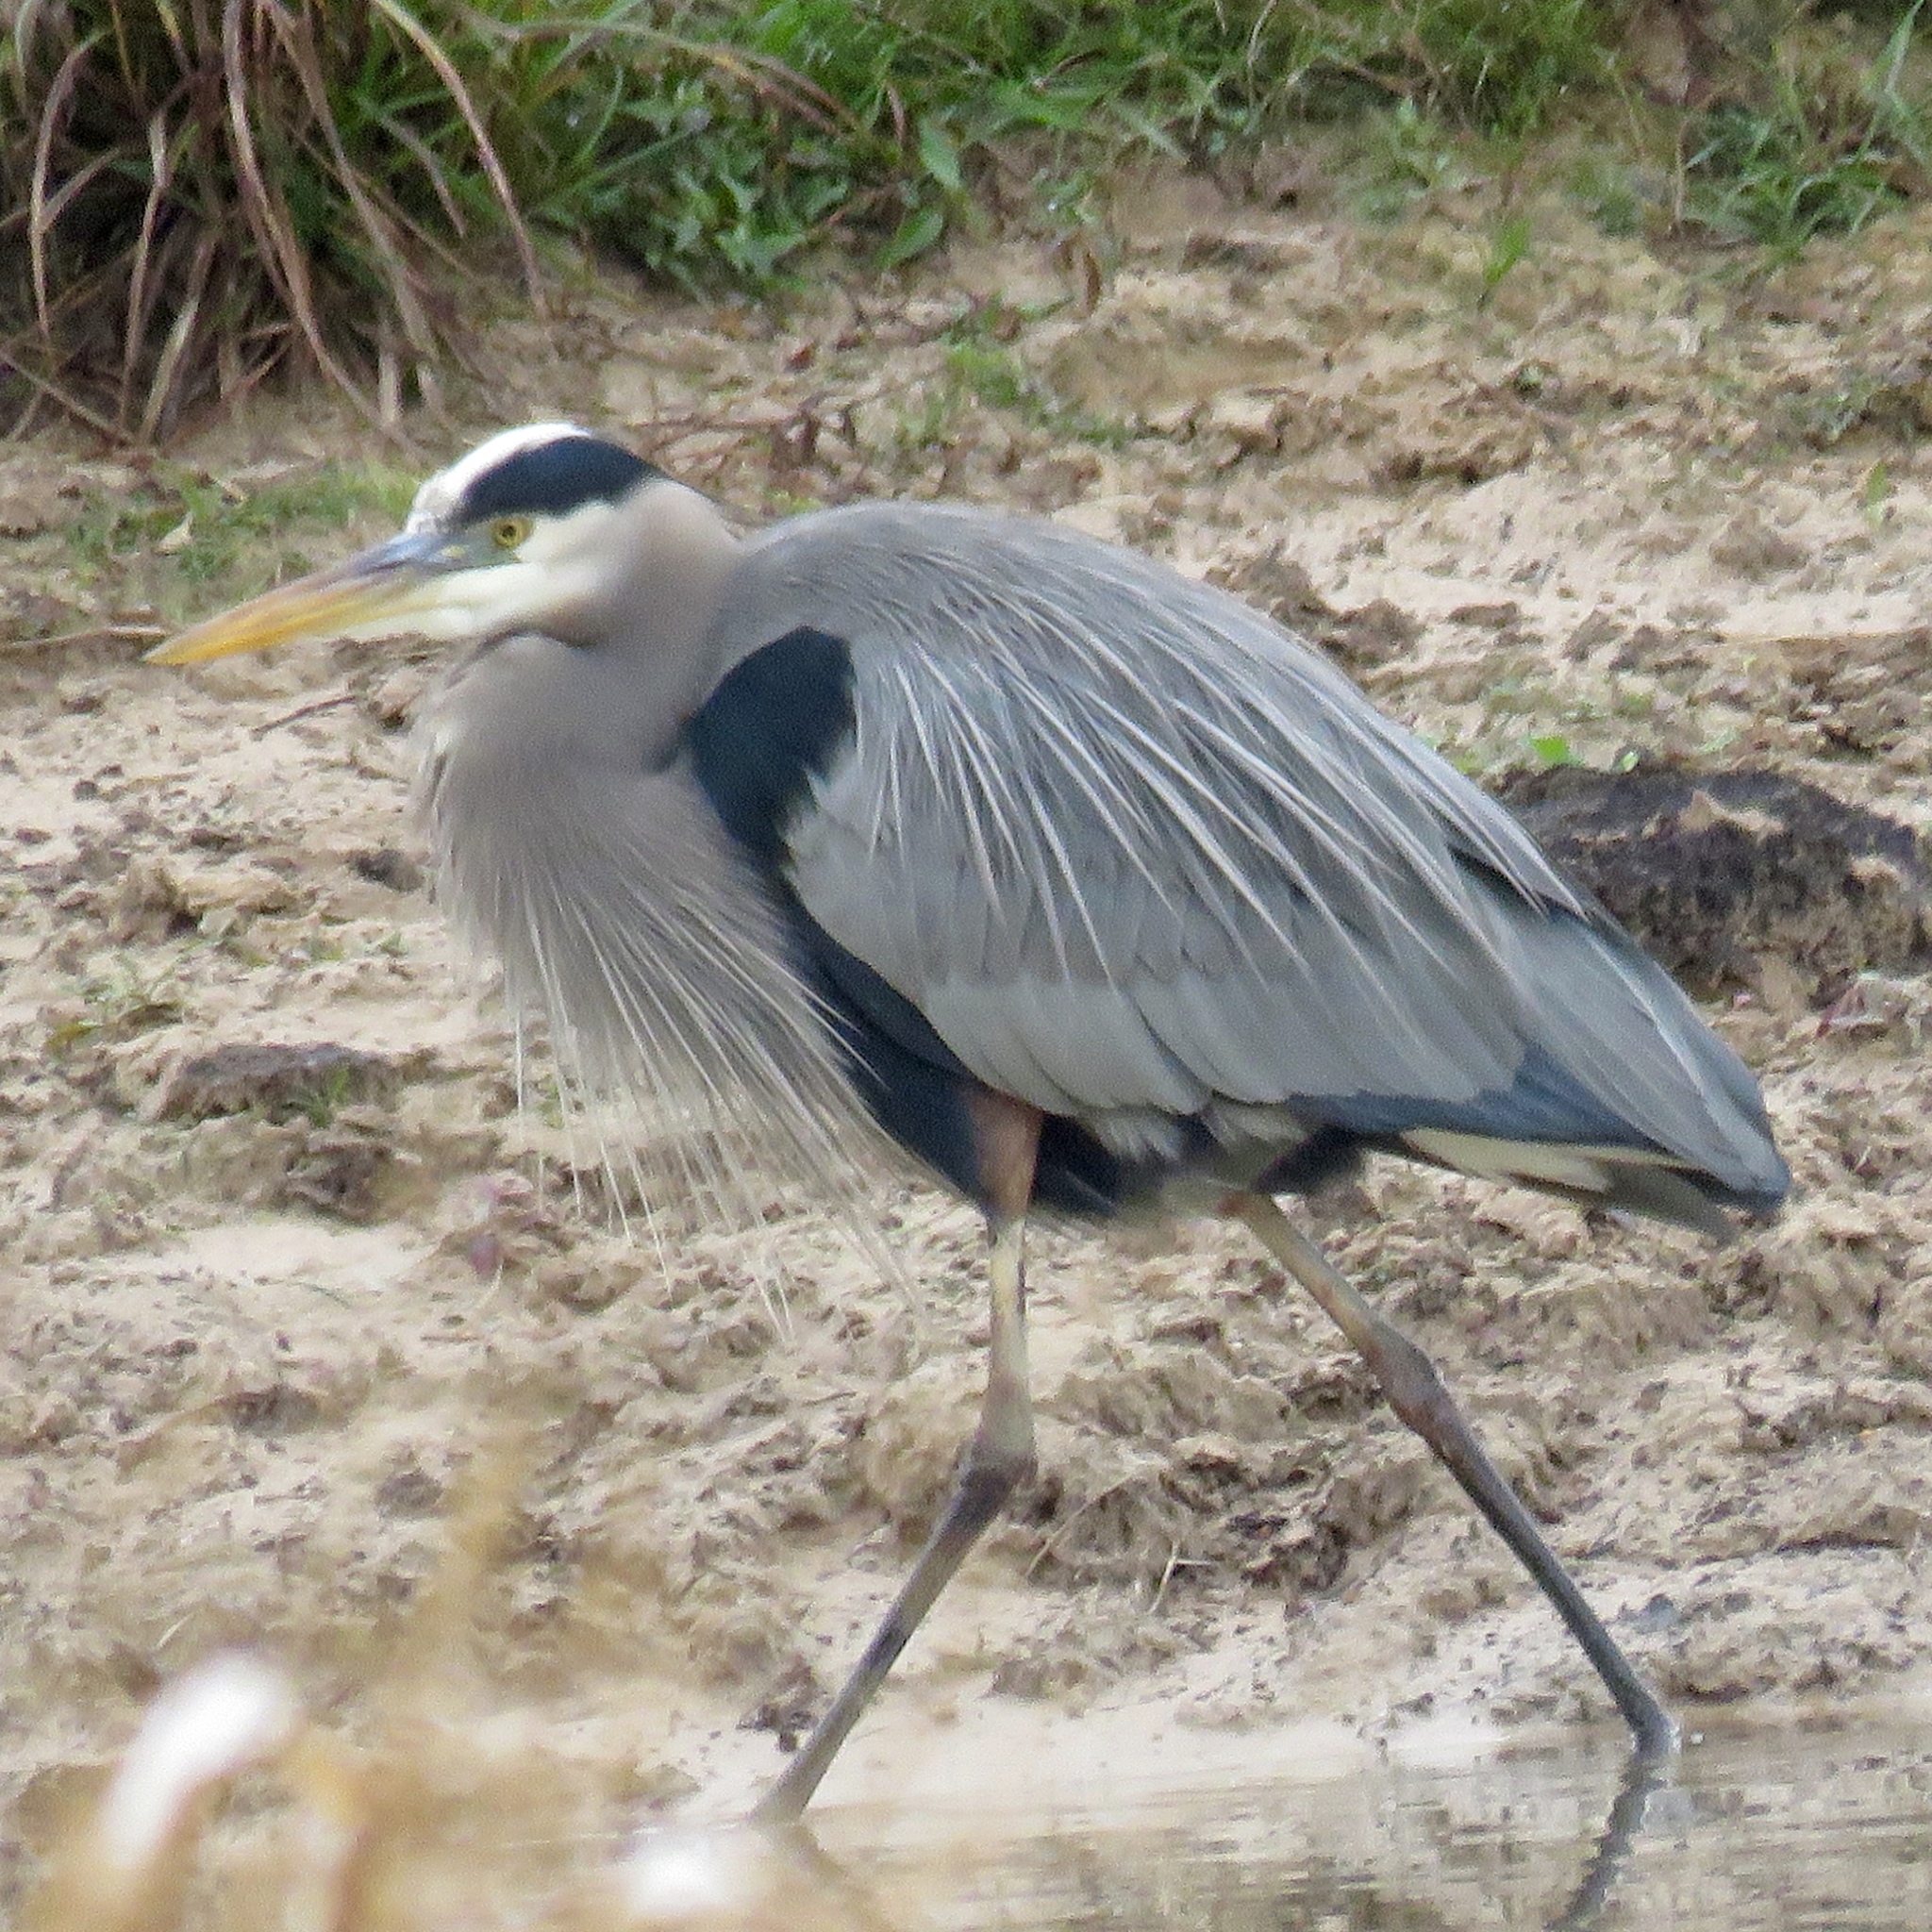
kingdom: Animalia
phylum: Chordata
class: Aves
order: Pelecaniformes
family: Ardeidae
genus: Ardea
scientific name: Ardea herodias
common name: Great blue heron
